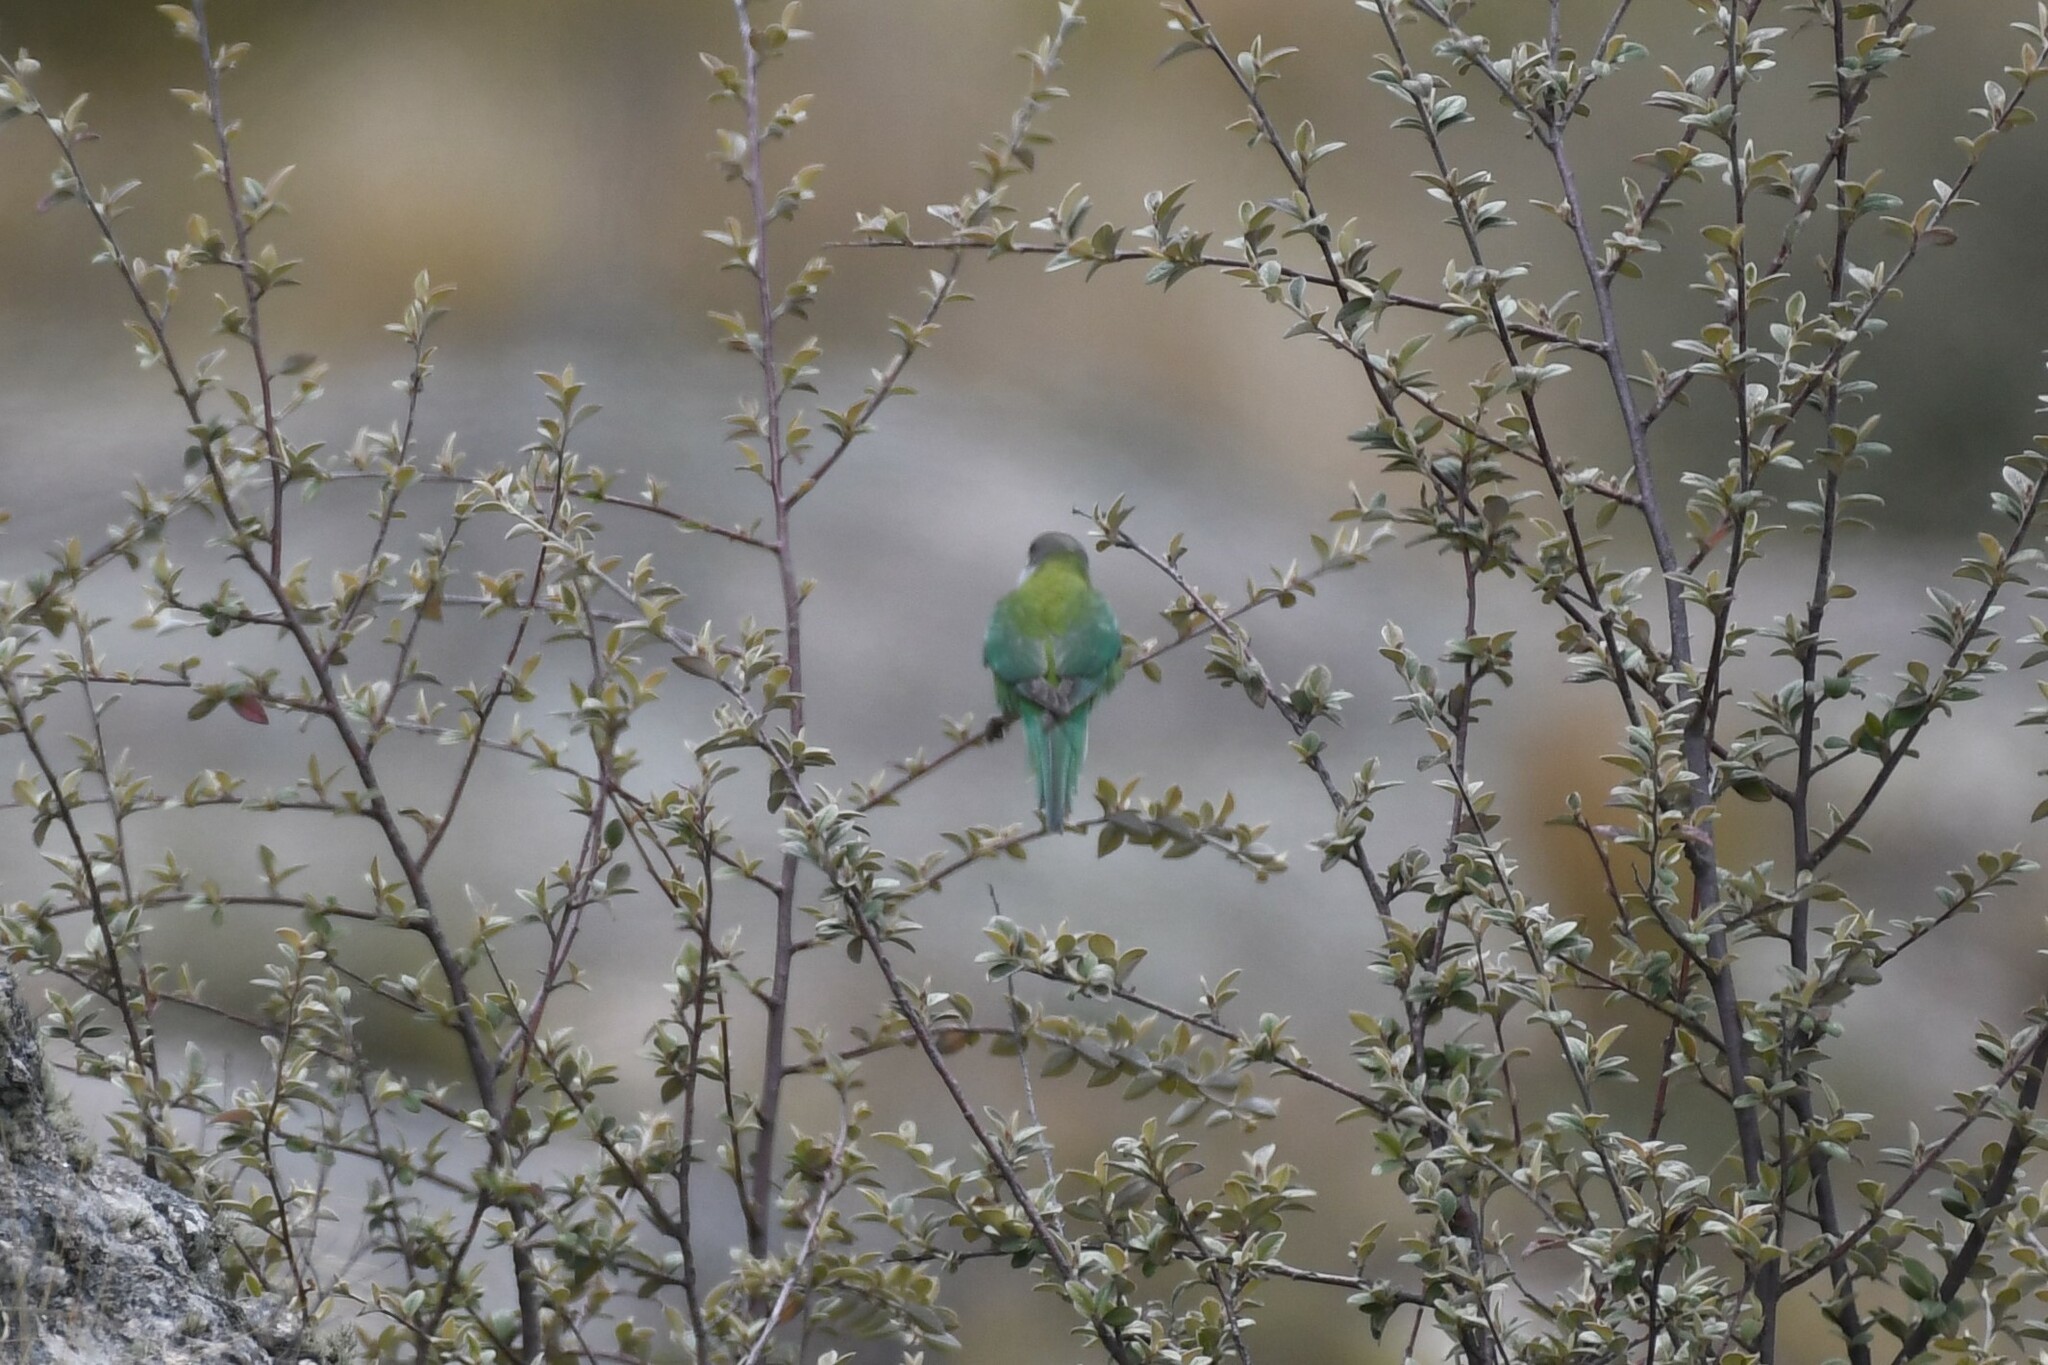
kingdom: Animalia
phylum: Chordata
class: Aves
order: Psittaciformes
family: Psittacidae
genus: Psilopsiagon
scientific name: Psilopsiagon aymara
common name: Grey-hooded parakeet
